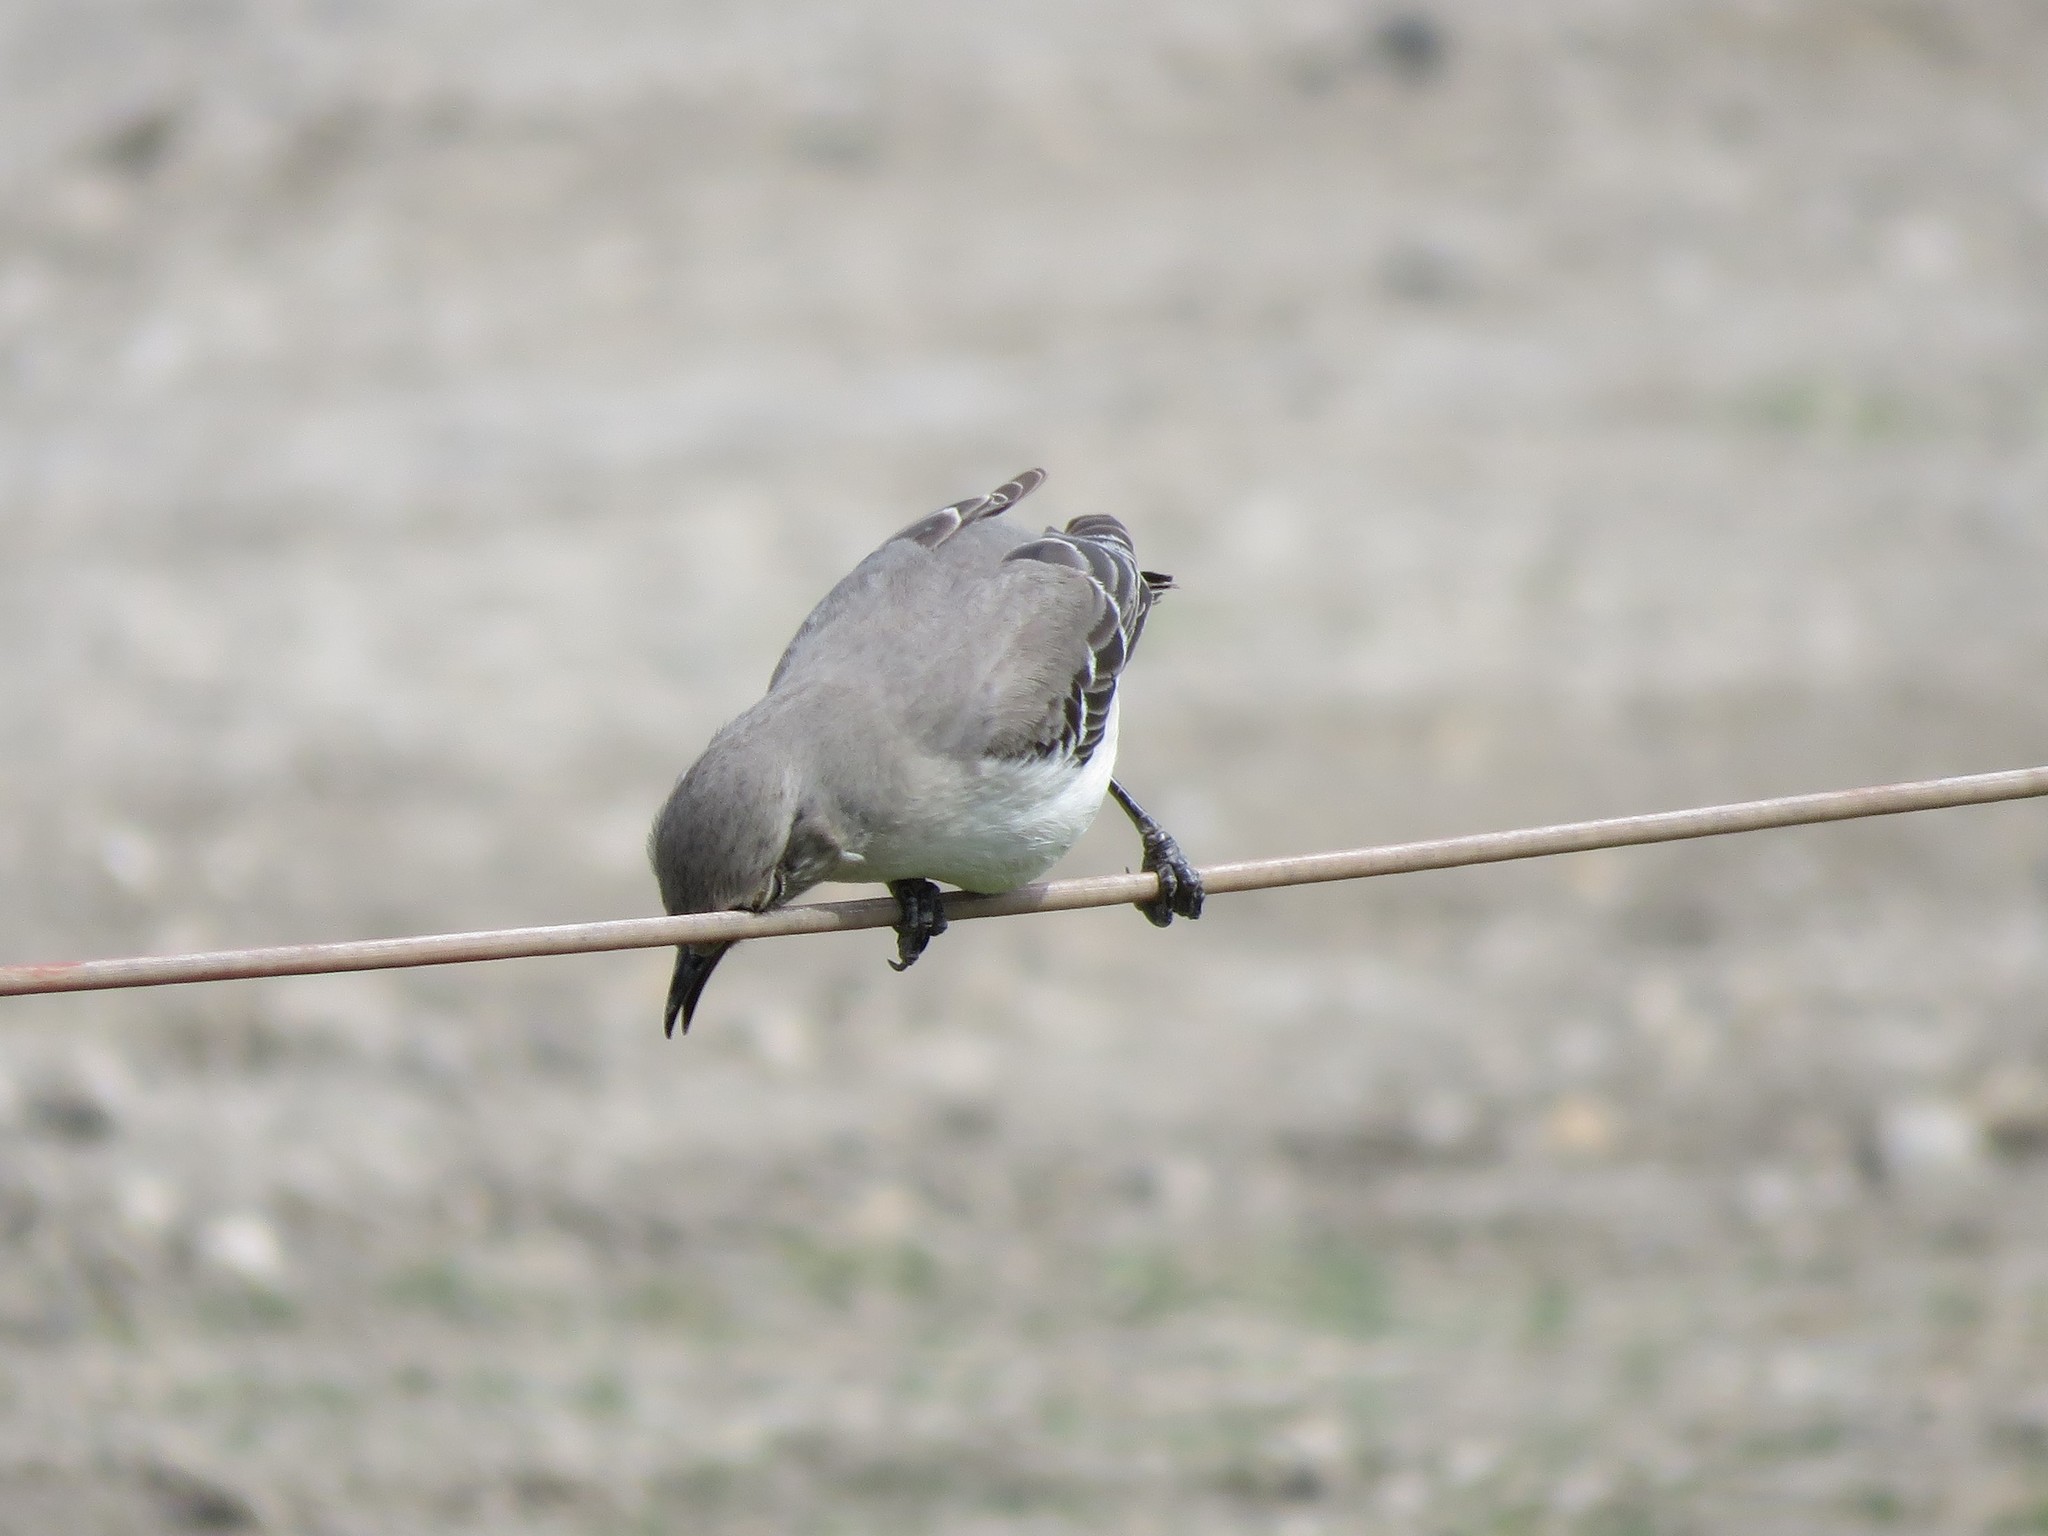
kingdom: Animalia
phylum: Chordata
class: Aves
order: Passeriformes
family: Mimidae
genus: Mimus
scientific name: Mimus polyglottos
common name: Northern mockingbird
